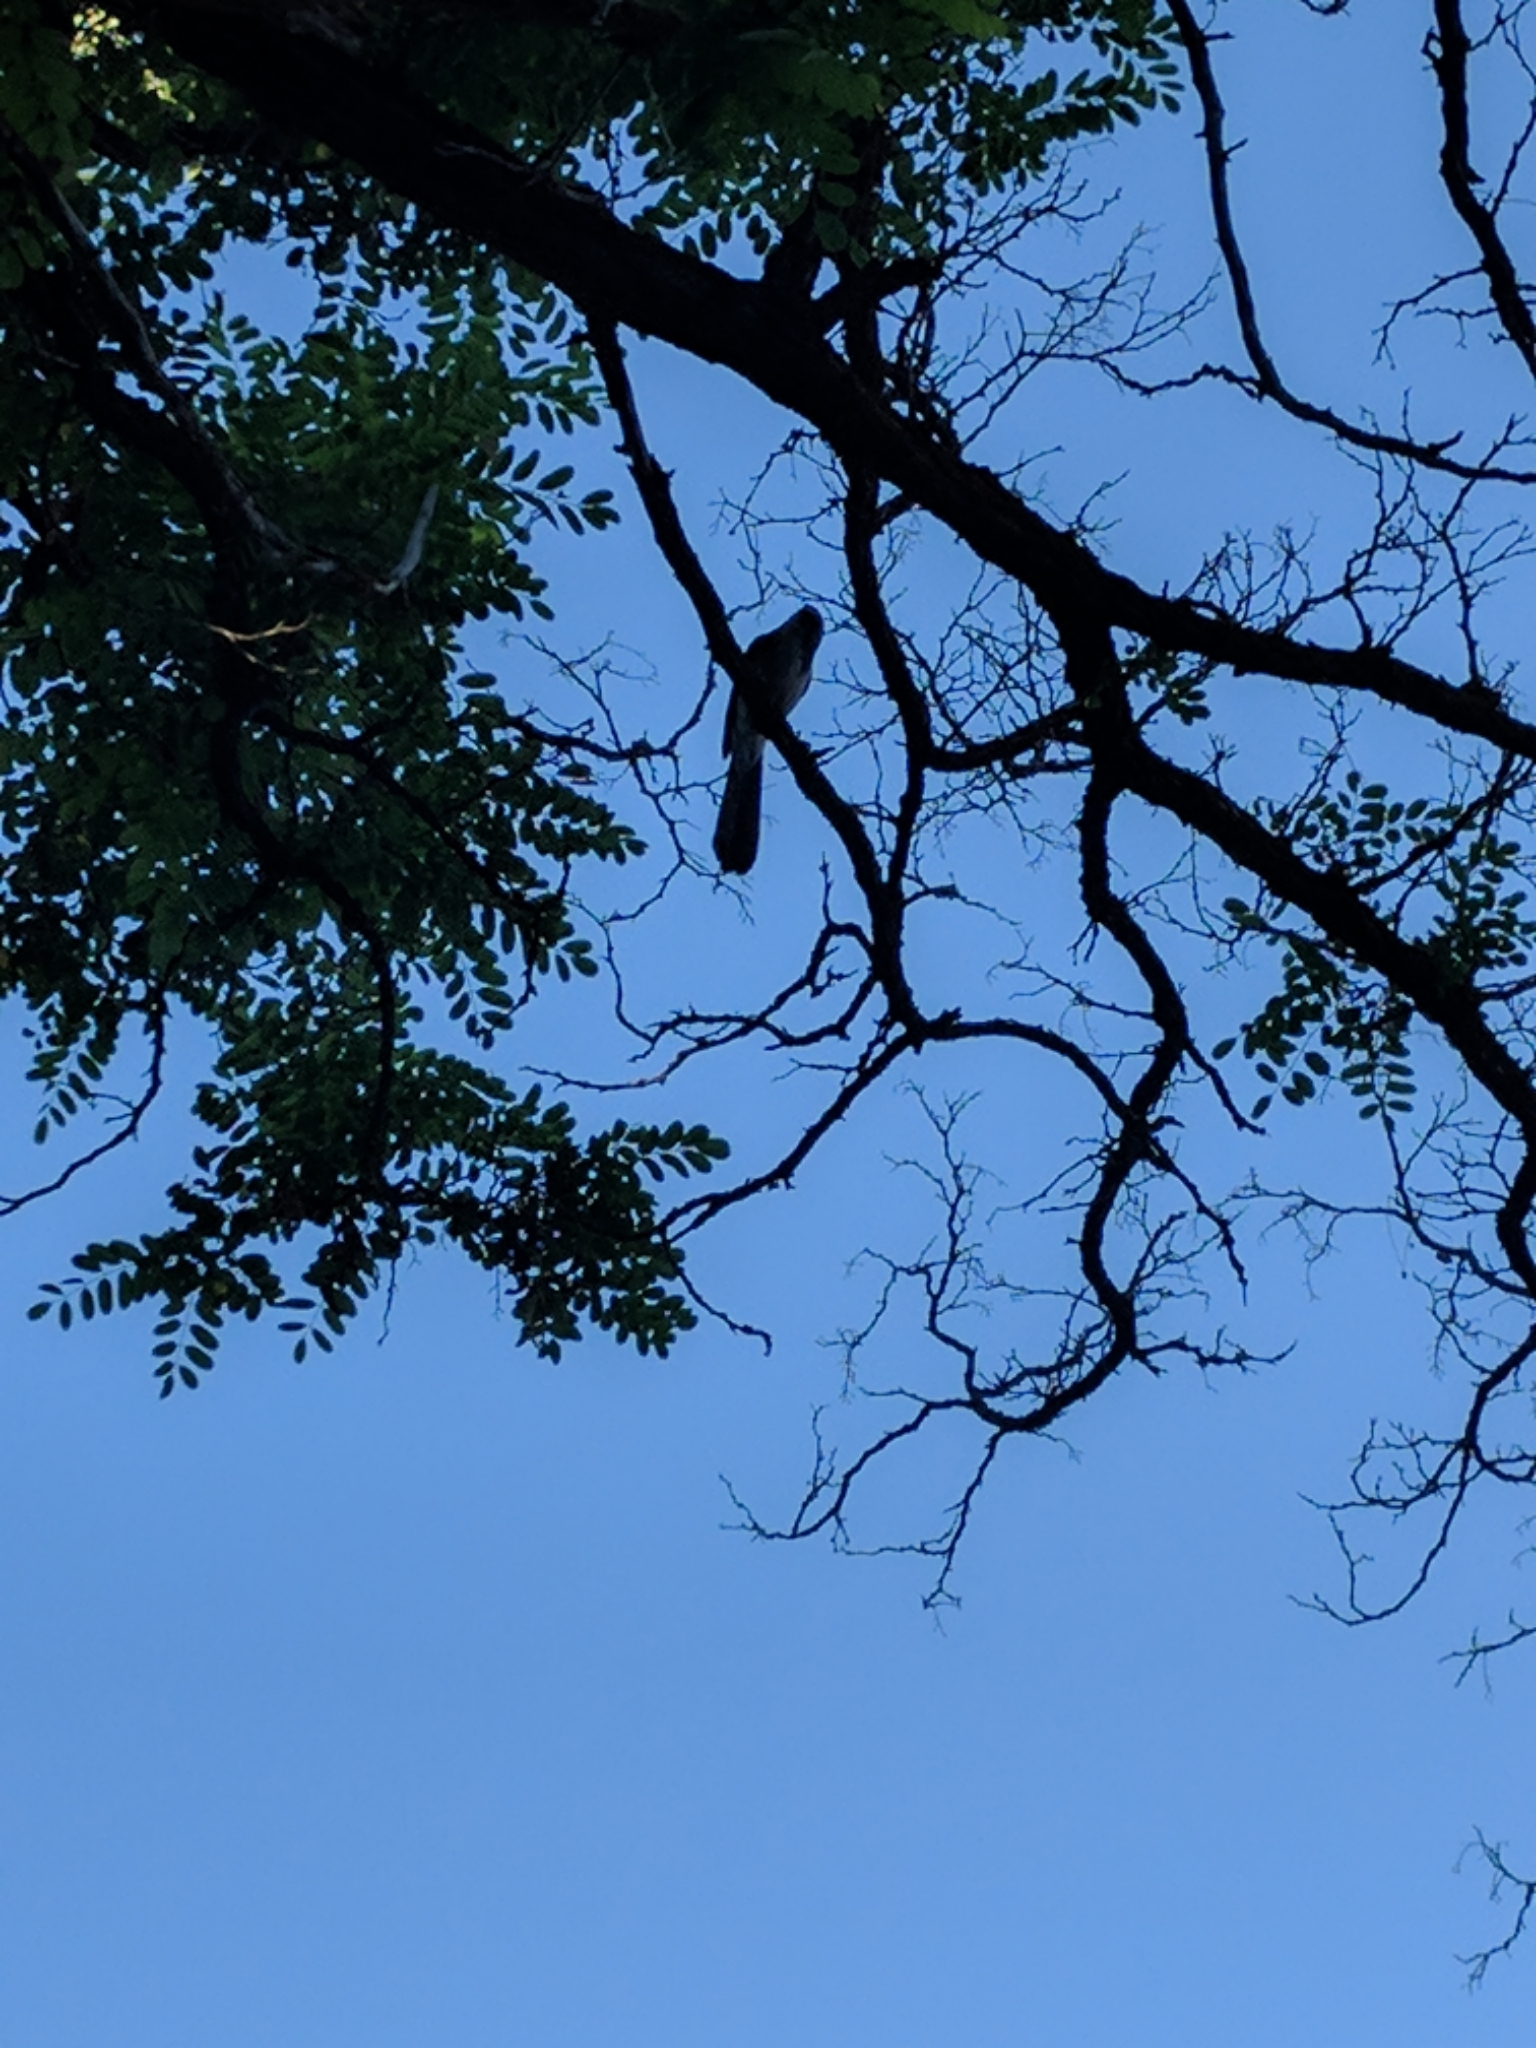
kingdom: Animalia
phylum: Chordata
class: Aves
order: Passeriformes
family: Corvidae
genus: Aphelocoma
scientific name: Aphelocoma californica
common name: California scrub-jay
